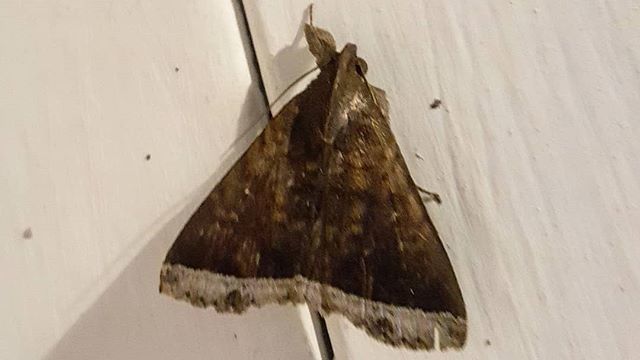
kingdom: Animalia
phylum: Arthropoda
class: Insecta
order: Lepidoptera
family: Erebidae
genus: Mamerthes
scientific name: Mamerthes orionalis
